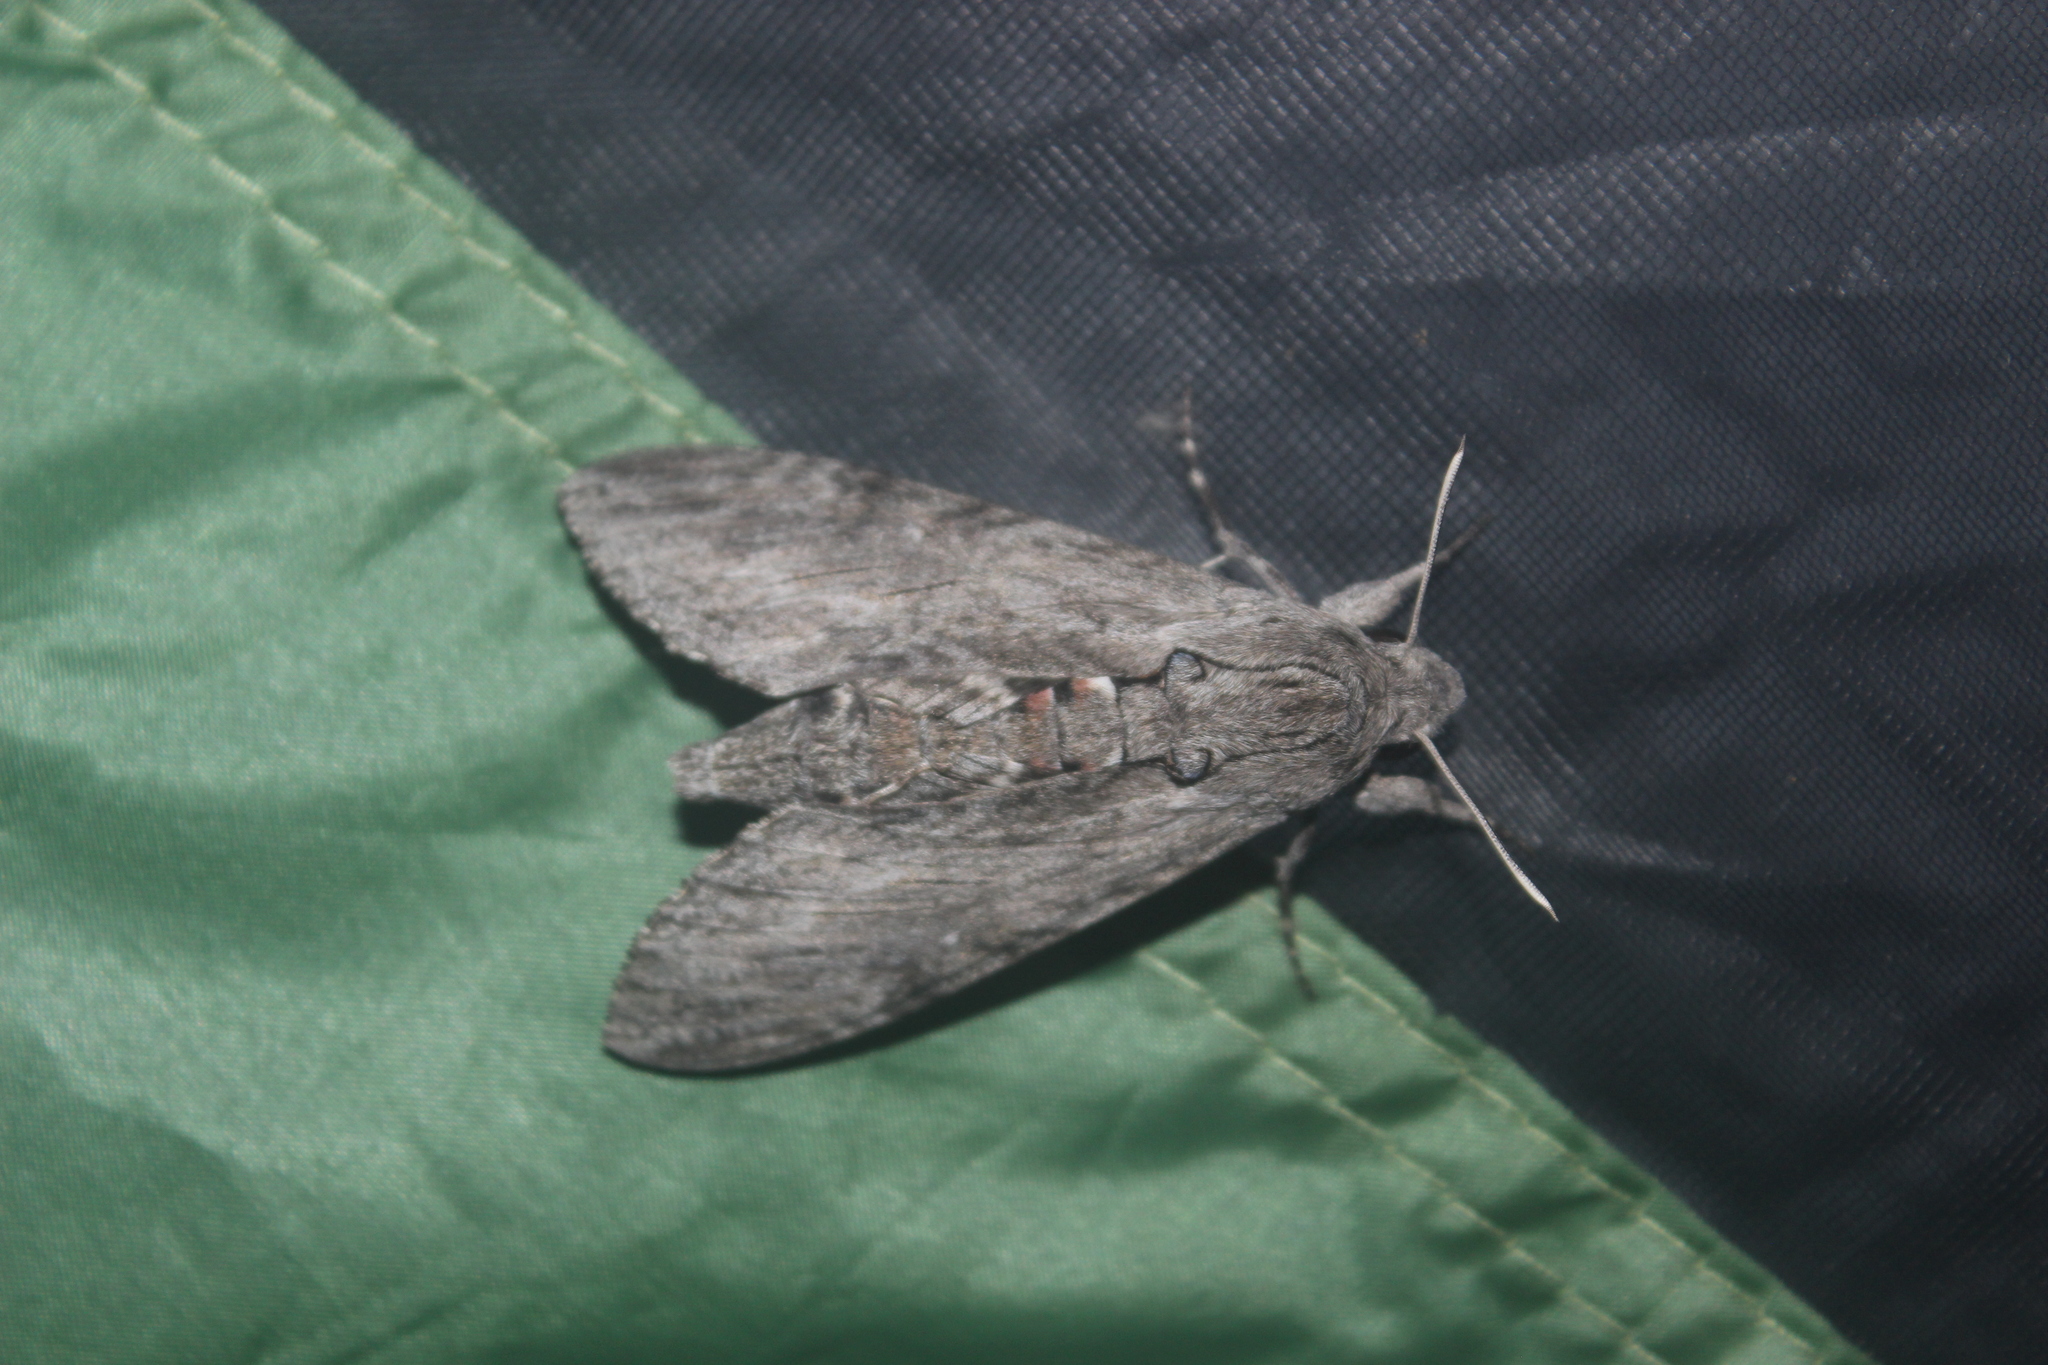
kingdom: Animalia
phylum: Arthropoda
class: Insecta
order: Lepidoptera
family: Sphingidae
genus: Agrius
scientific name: Agrius convolvuli
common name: Convolvulus hawkmoth
